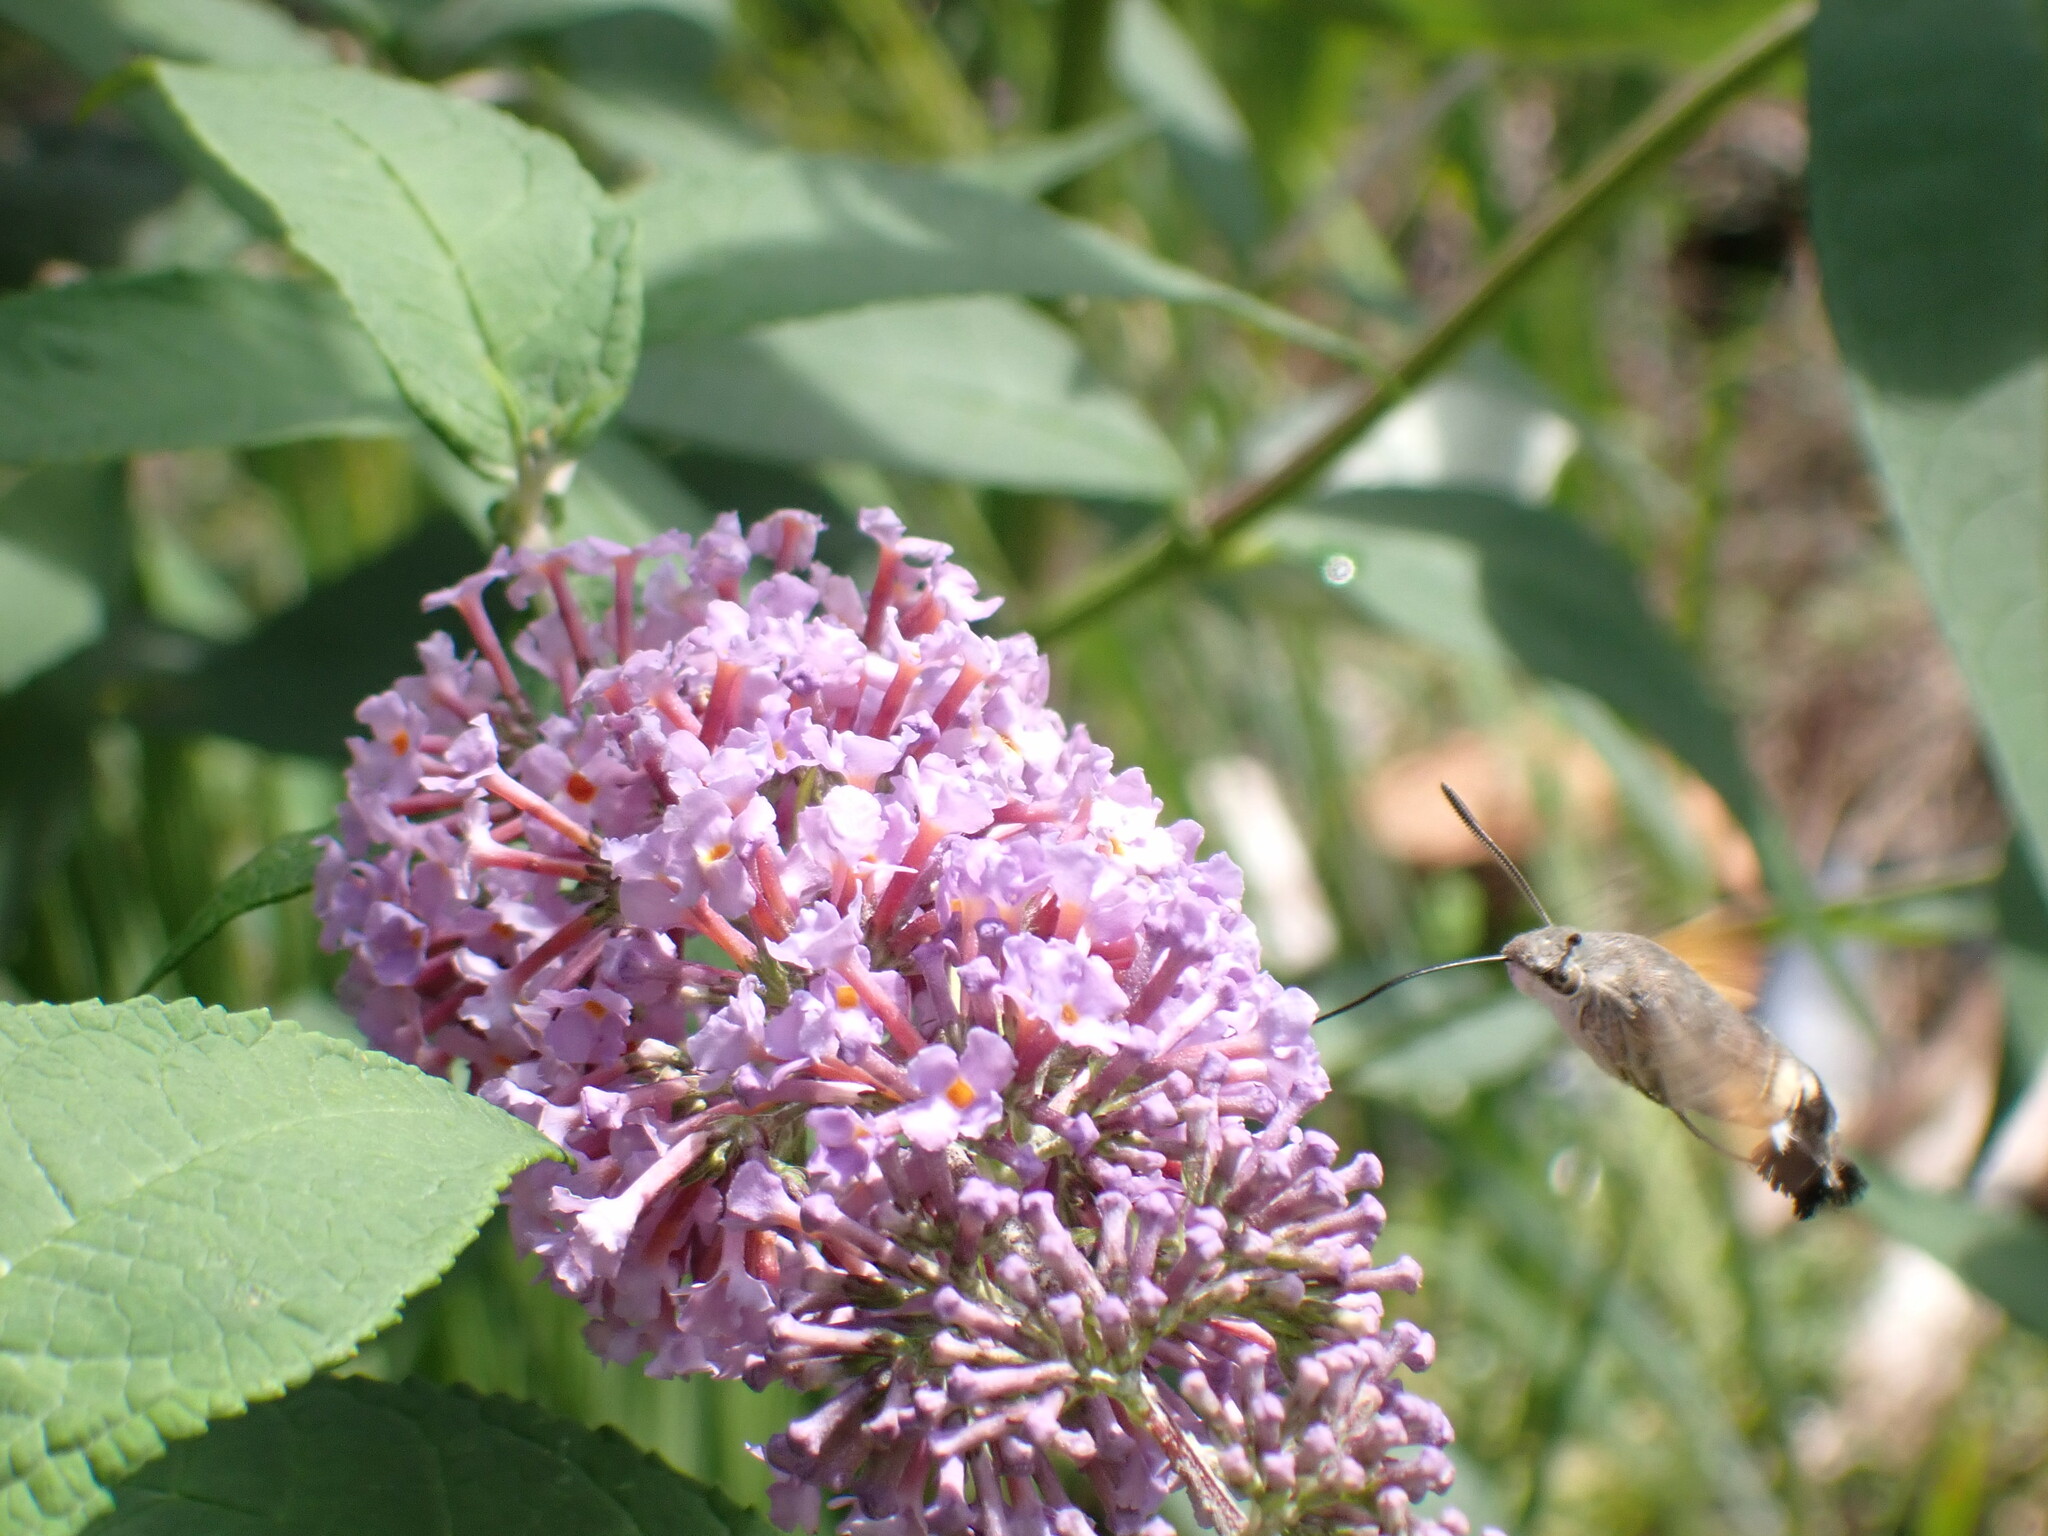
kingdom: Animalia
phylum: Arthropoda
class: Insecta
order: Lepidoptera
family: Sphingidae
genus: Macroglossum
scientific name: Macroglossum stellatarum
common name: Humming-bird hawk-moth
